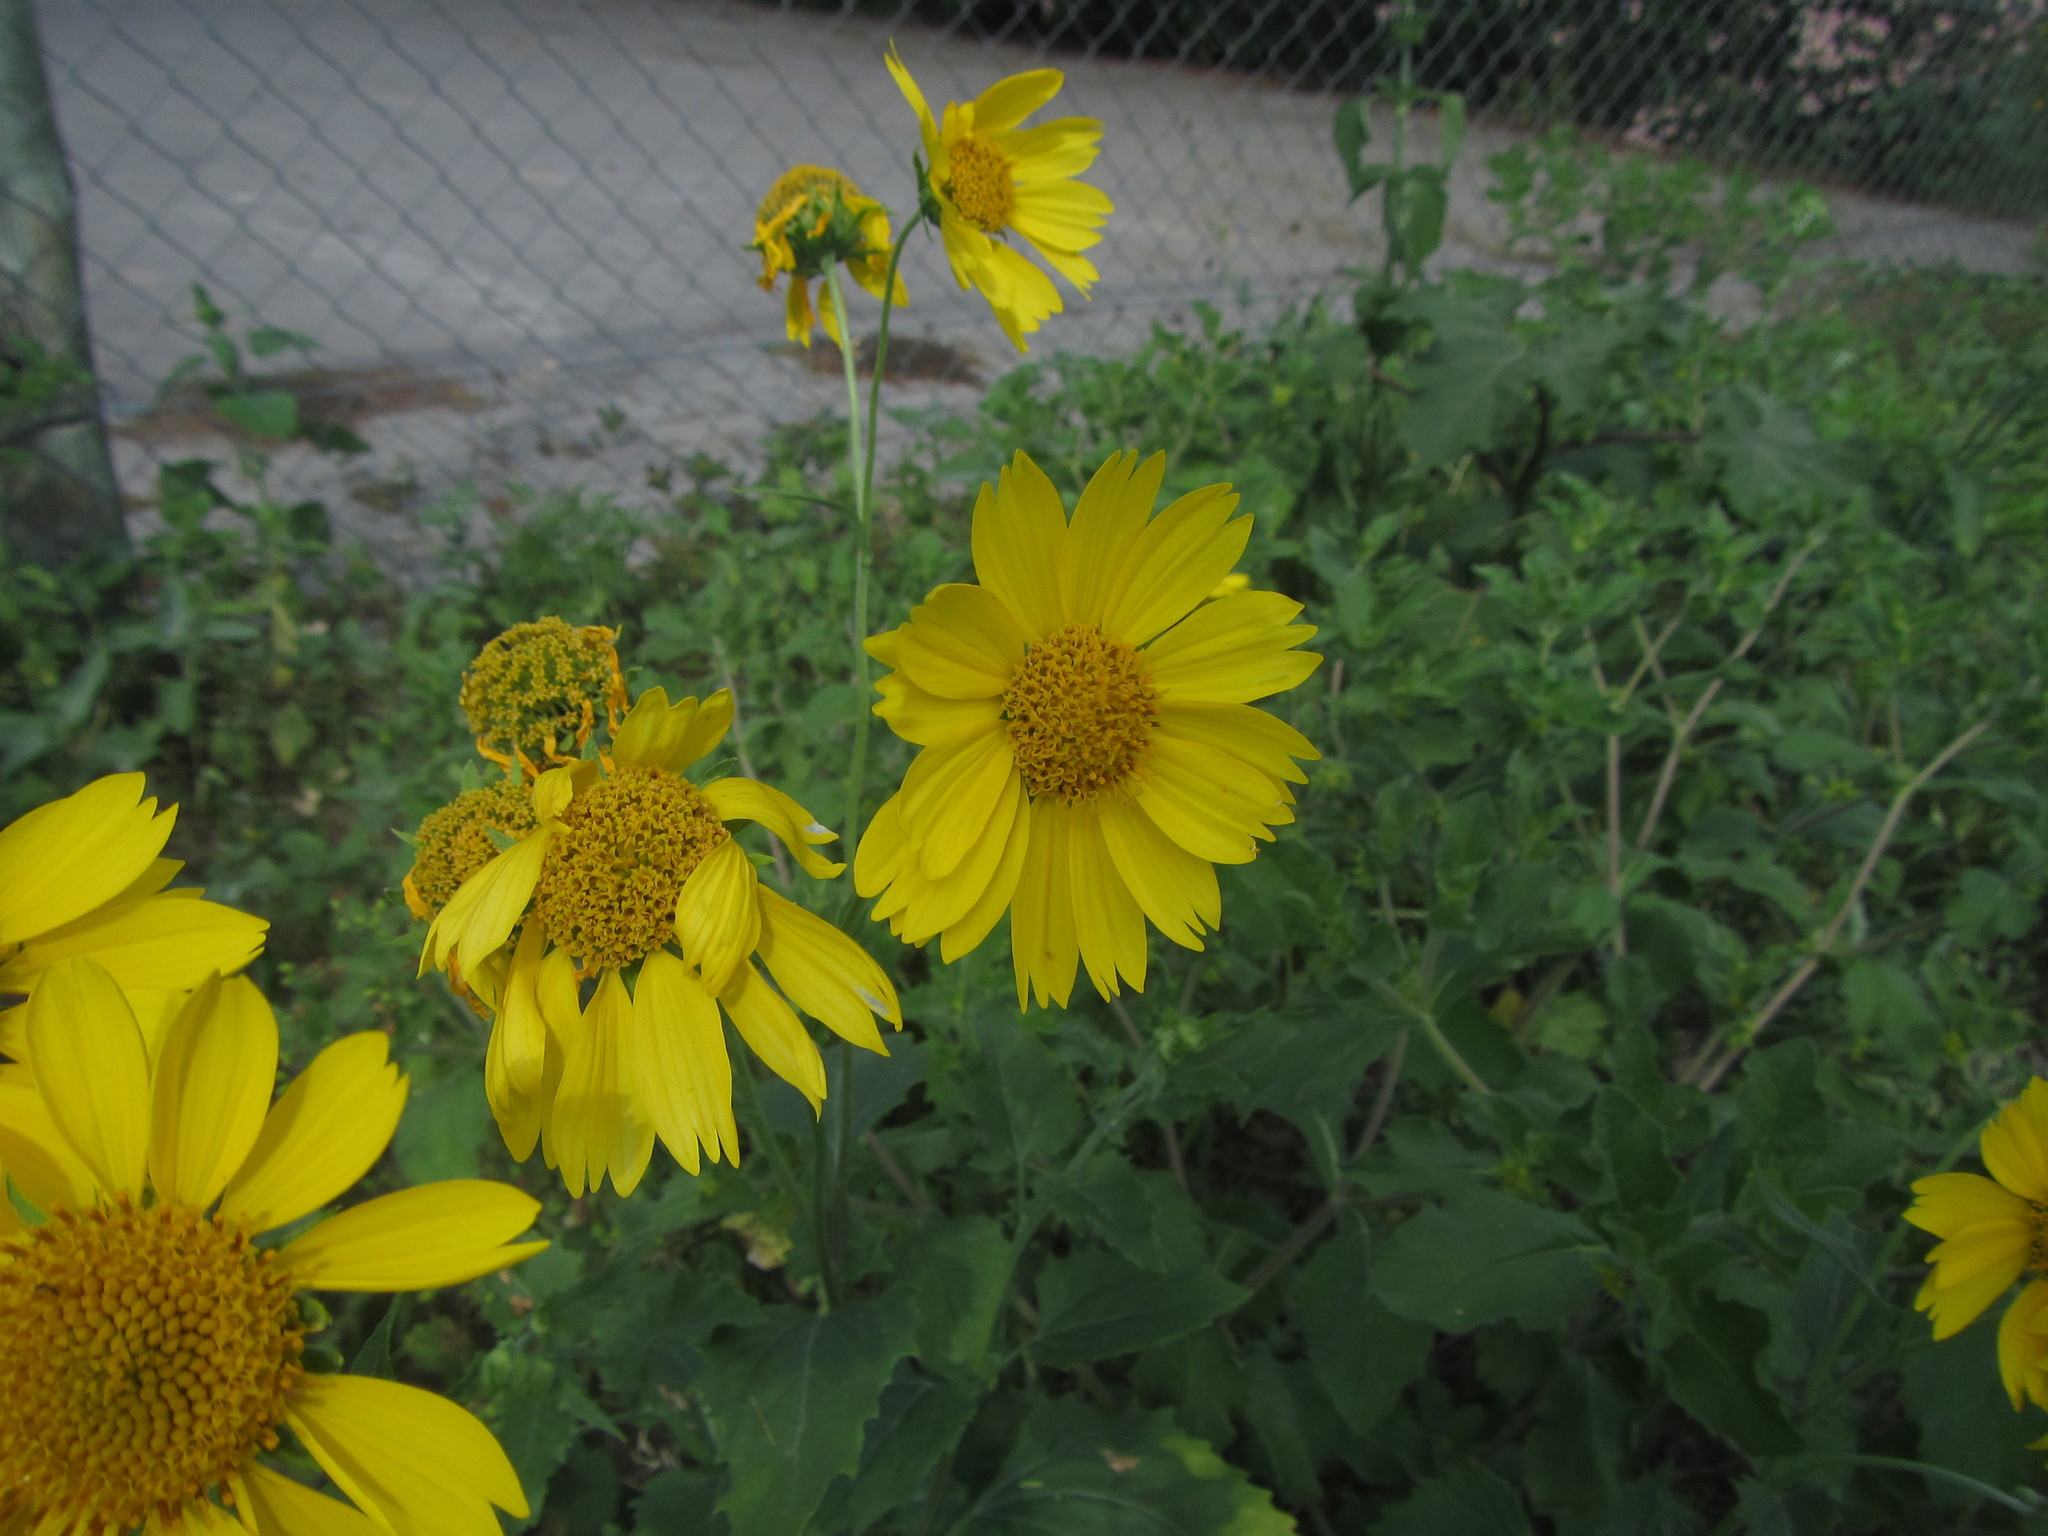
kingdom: Plantae
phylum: Tracheophyta
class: Magnoliopsida
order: Asterales
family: Asteraceae
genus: Verbesina
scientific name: Verbesina encelioides
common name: Golden crownbeard
